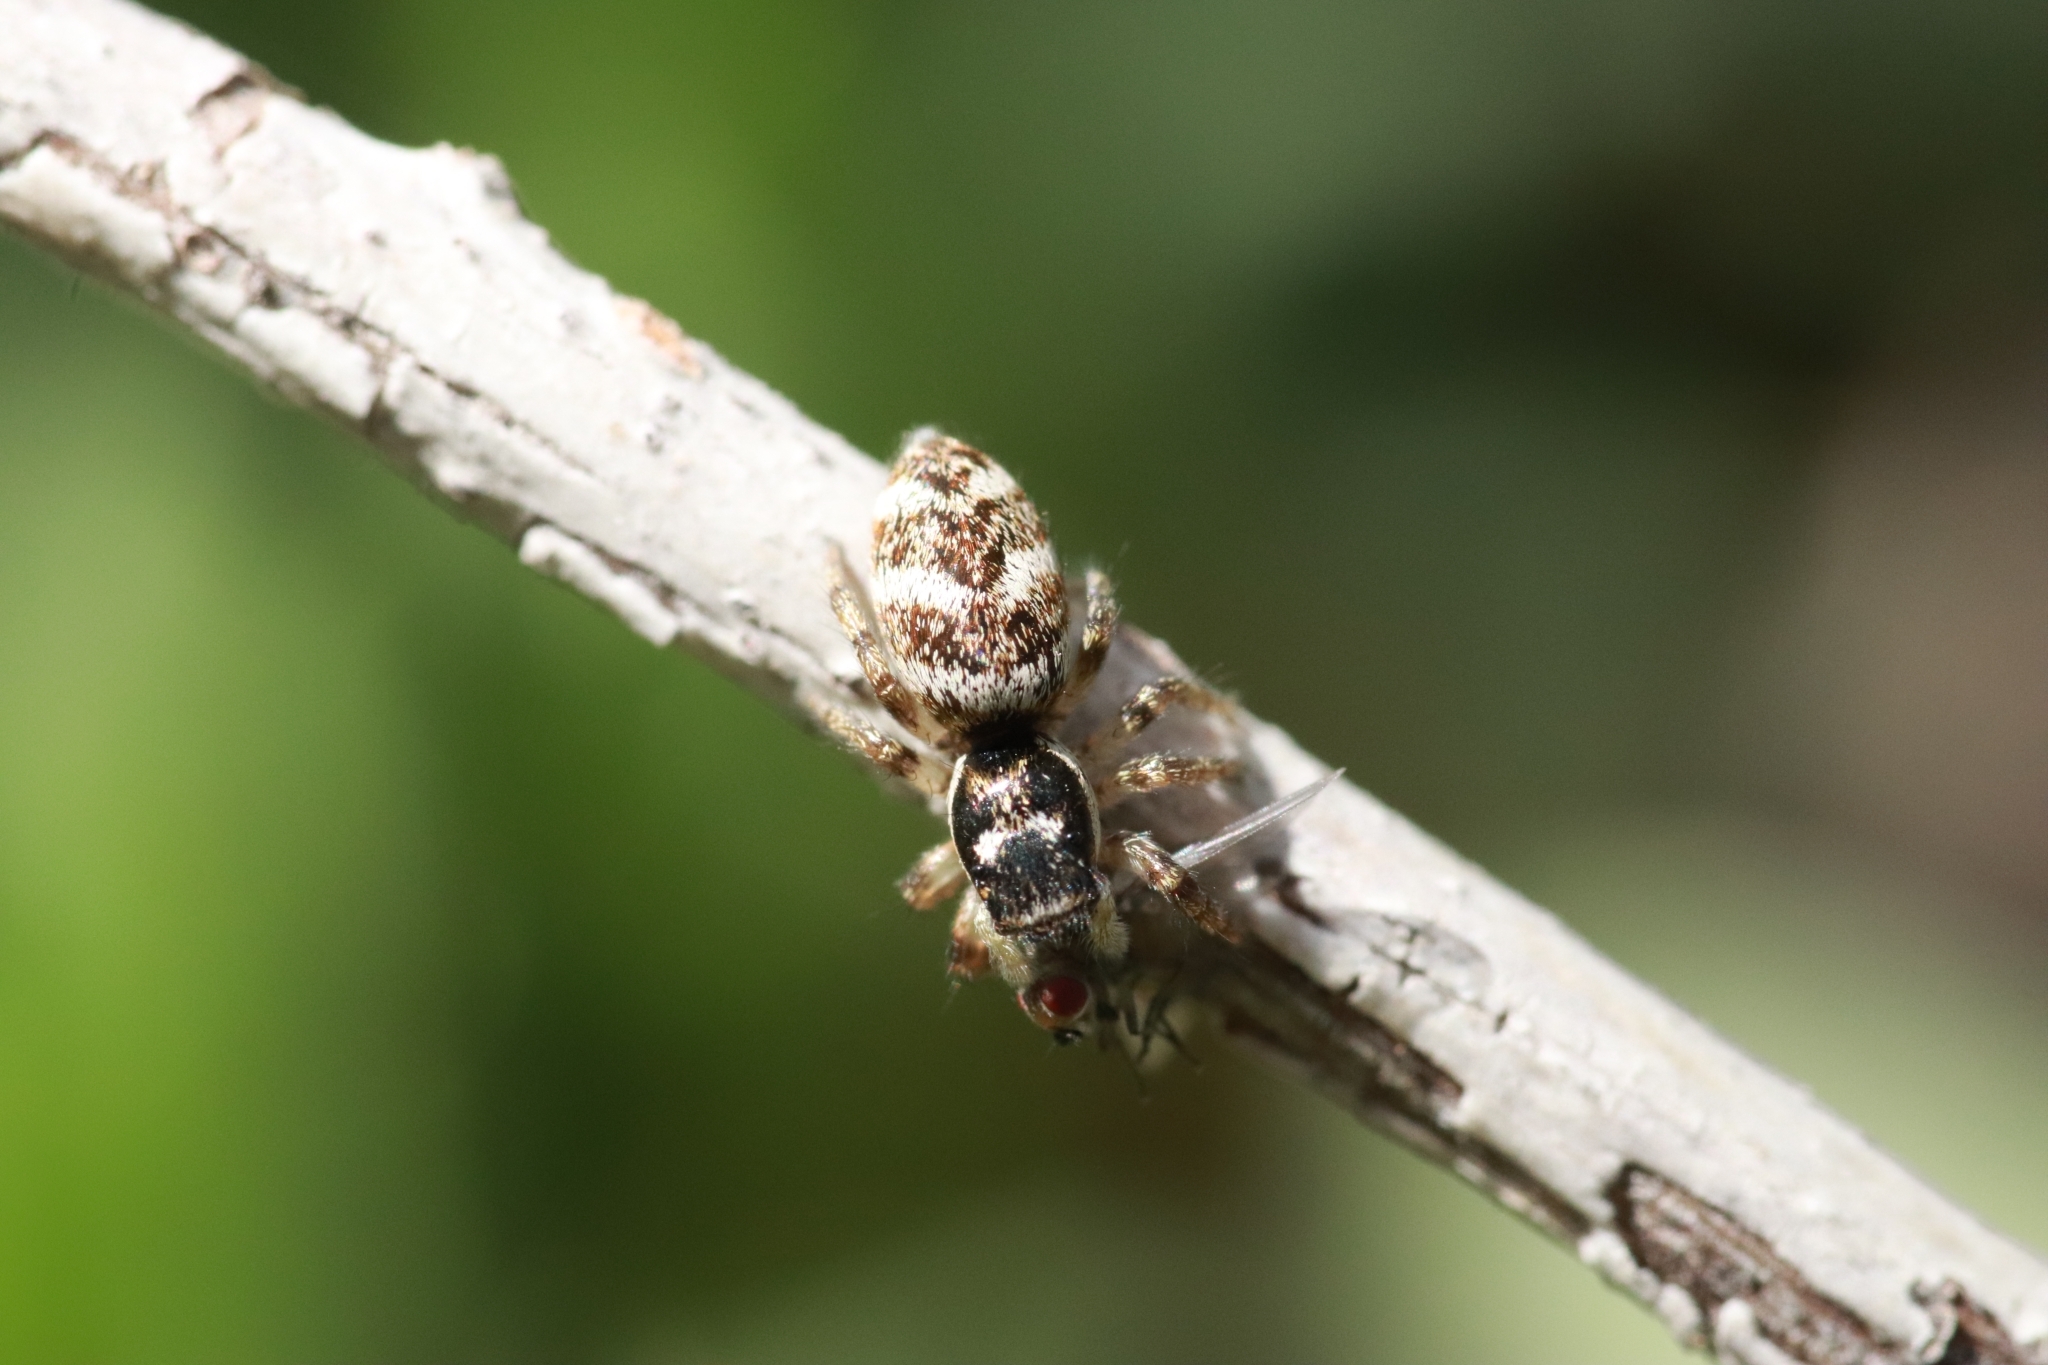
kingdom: Animalia
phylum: Arthropoda
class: Arachnida
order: Araneae
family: Salticidae
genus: Salticus
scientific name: Salticus scenicus
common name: Zebra jumper
